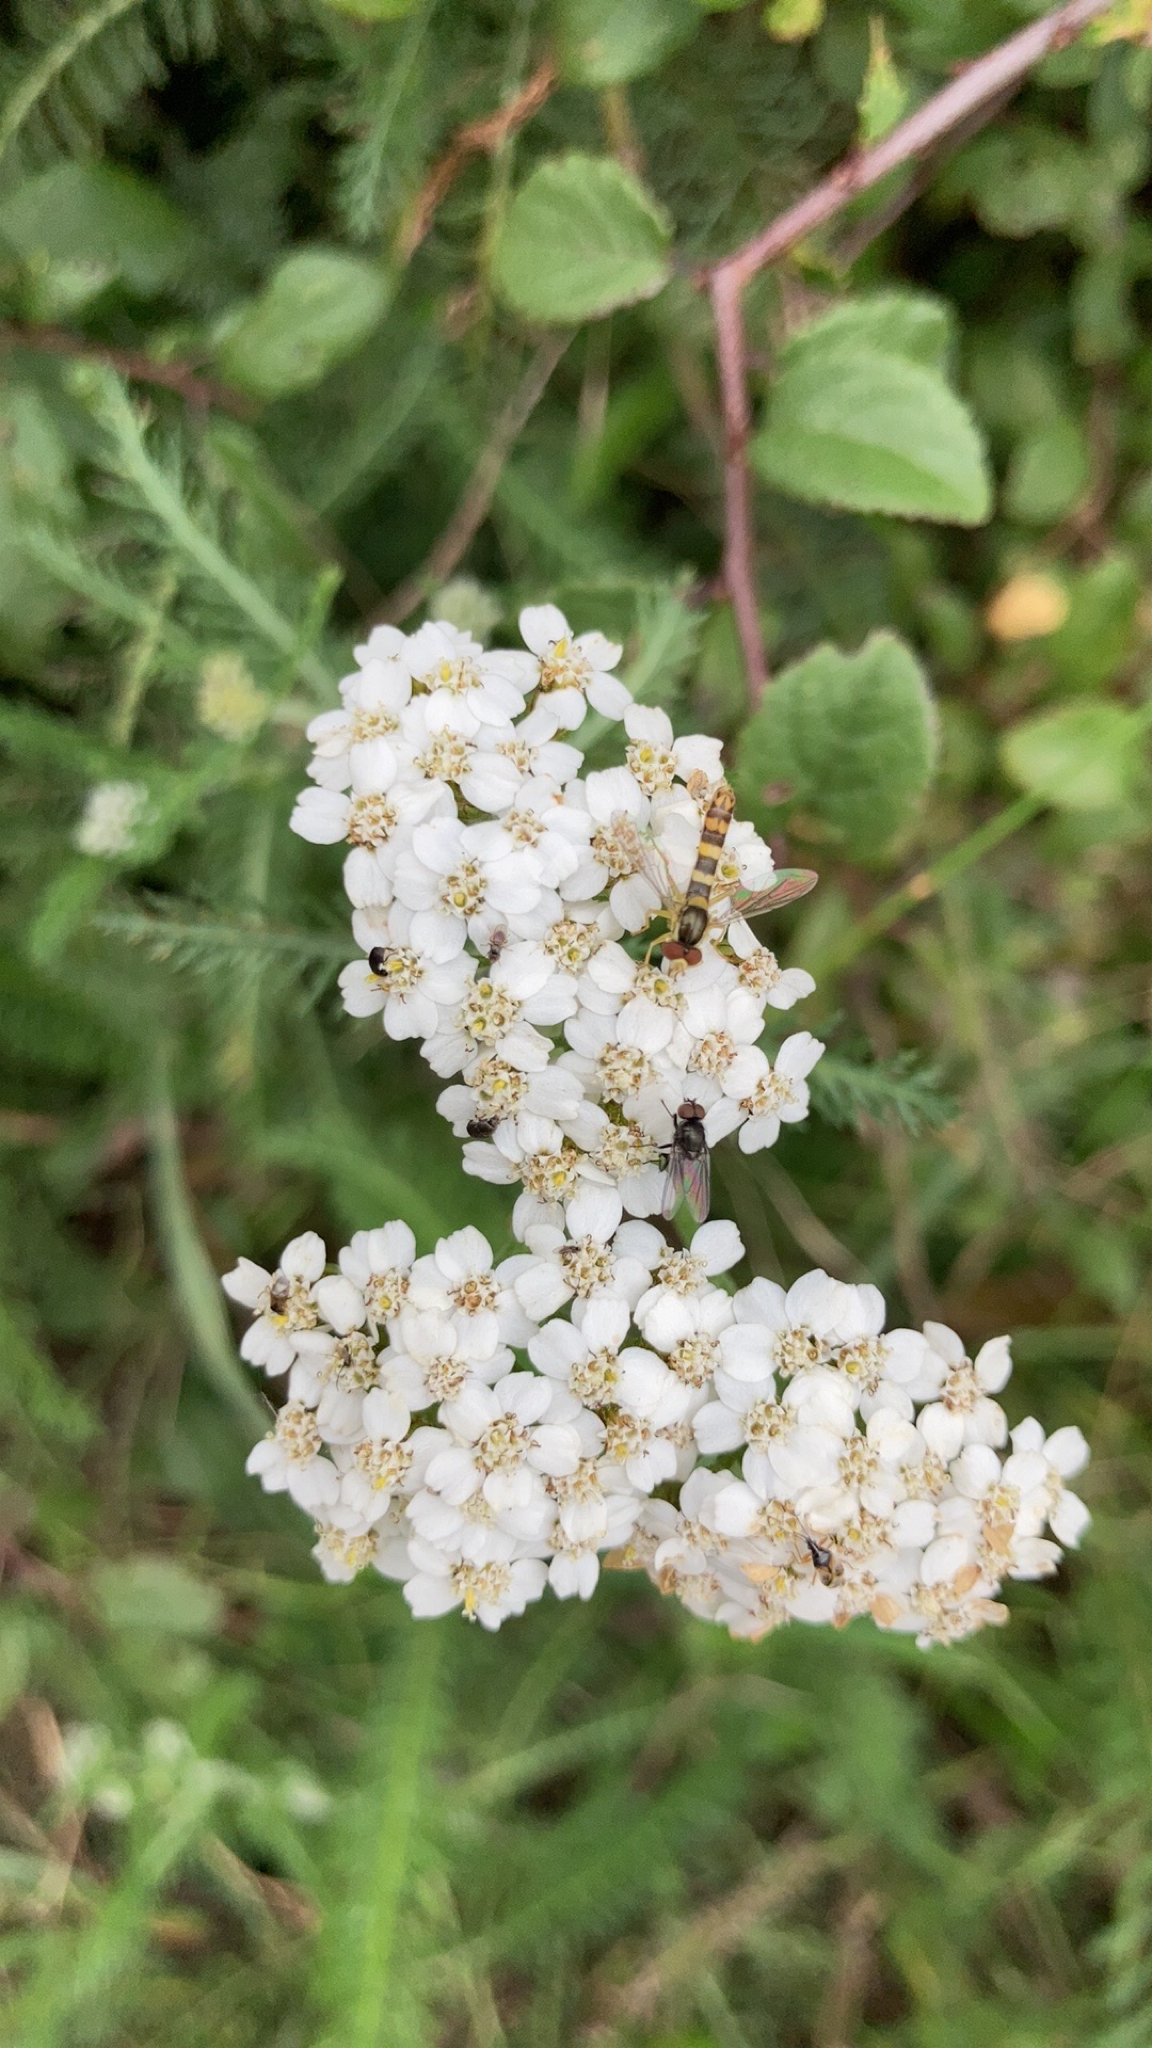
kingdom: Animalia
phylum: Arthropoda
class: Insecta
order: Diptera
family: Syrphidae
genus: Sphaerophoria
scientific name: Sphaerophoria scripta
